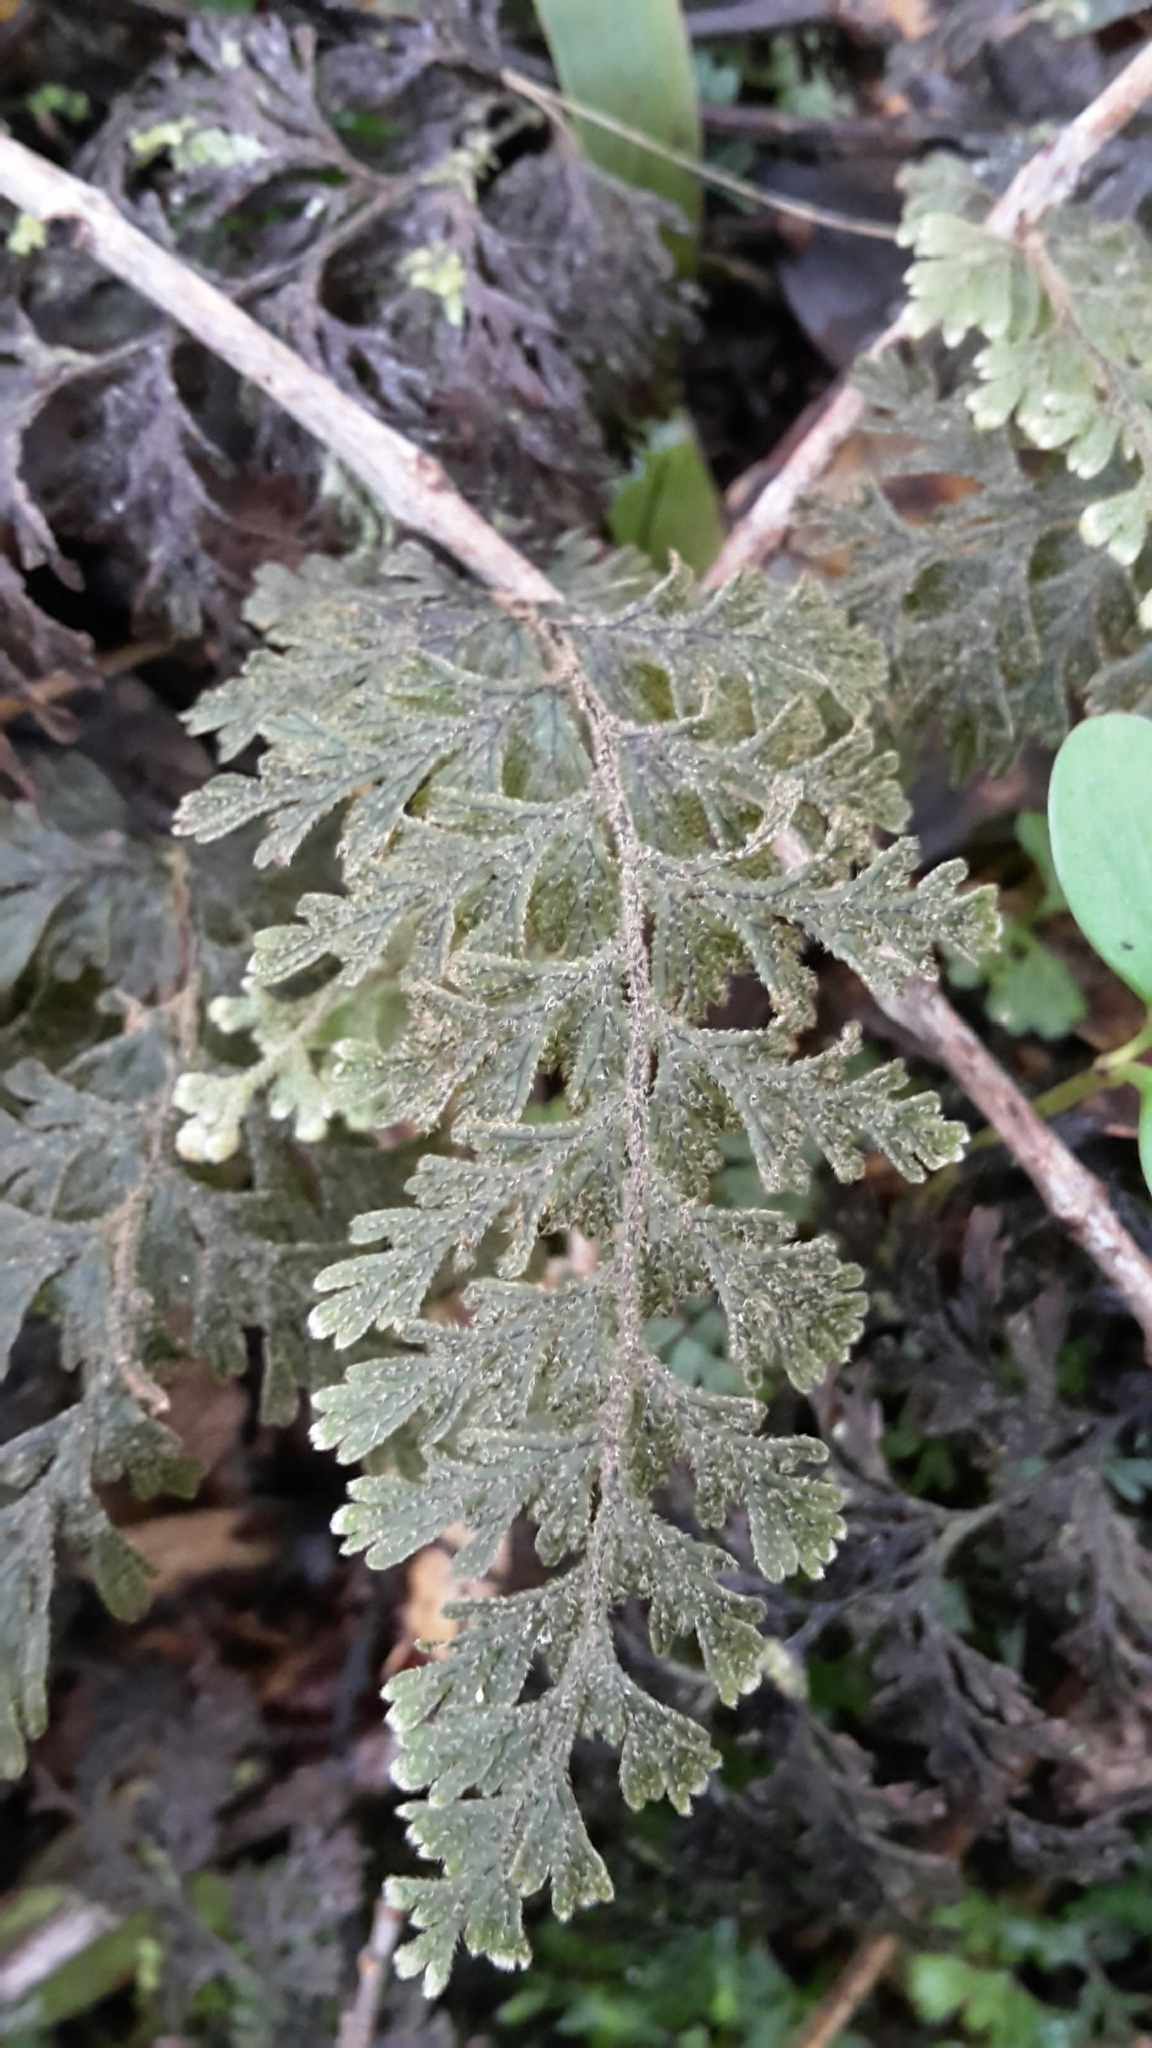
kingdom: Plantae
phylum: Tracheophyta
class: Polypodiopsida
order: Hymenophyllales
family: Hymenophyllaceae
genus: Hymenophyllum
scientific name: Hymenophyllum frankliniae
